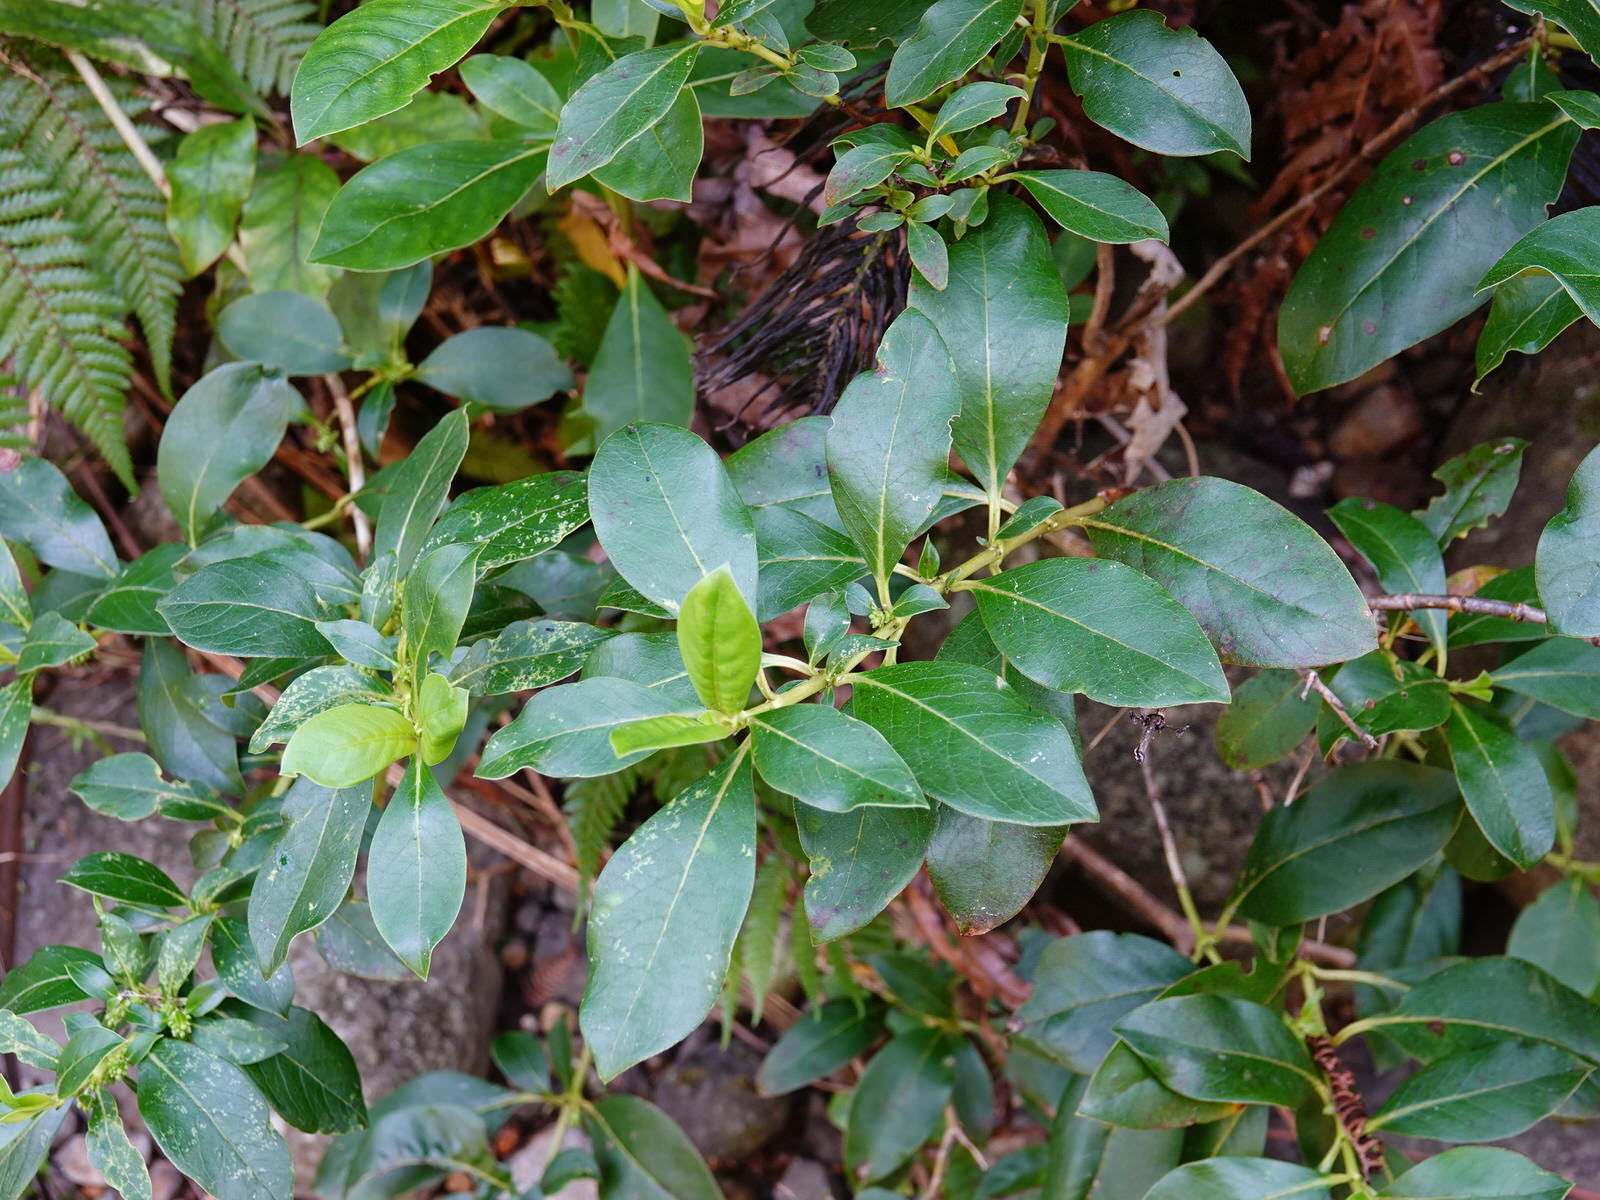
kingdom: Plantae
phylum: Tracheophyta
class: Magnoliopsida
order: Gentianales
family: Rubiaceae
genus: Coprosma
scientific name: Coprosma robusta
